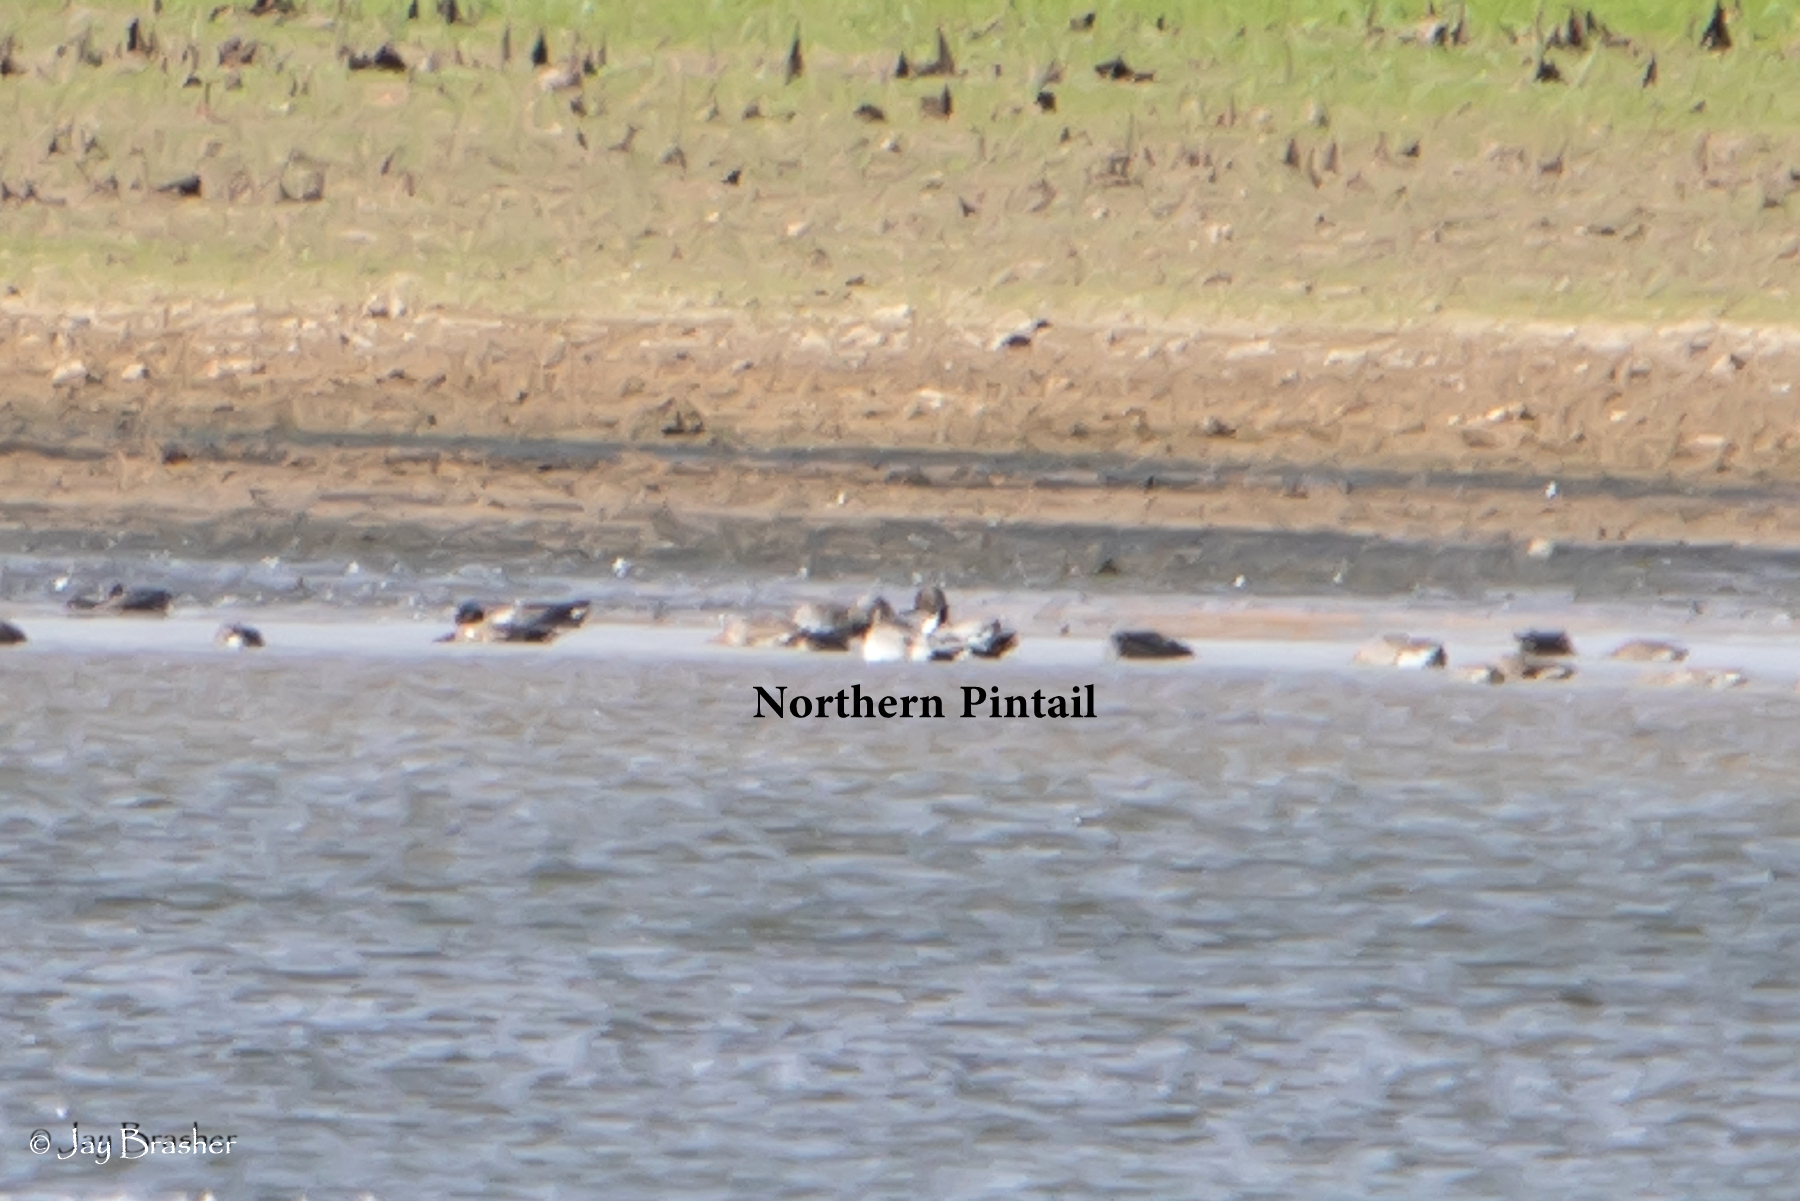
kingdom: Animalia
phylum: Chordata
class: Aves
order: Anseriformes
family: Anatidae
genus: Anas
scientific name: Anas acuta
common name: Northern pintail
